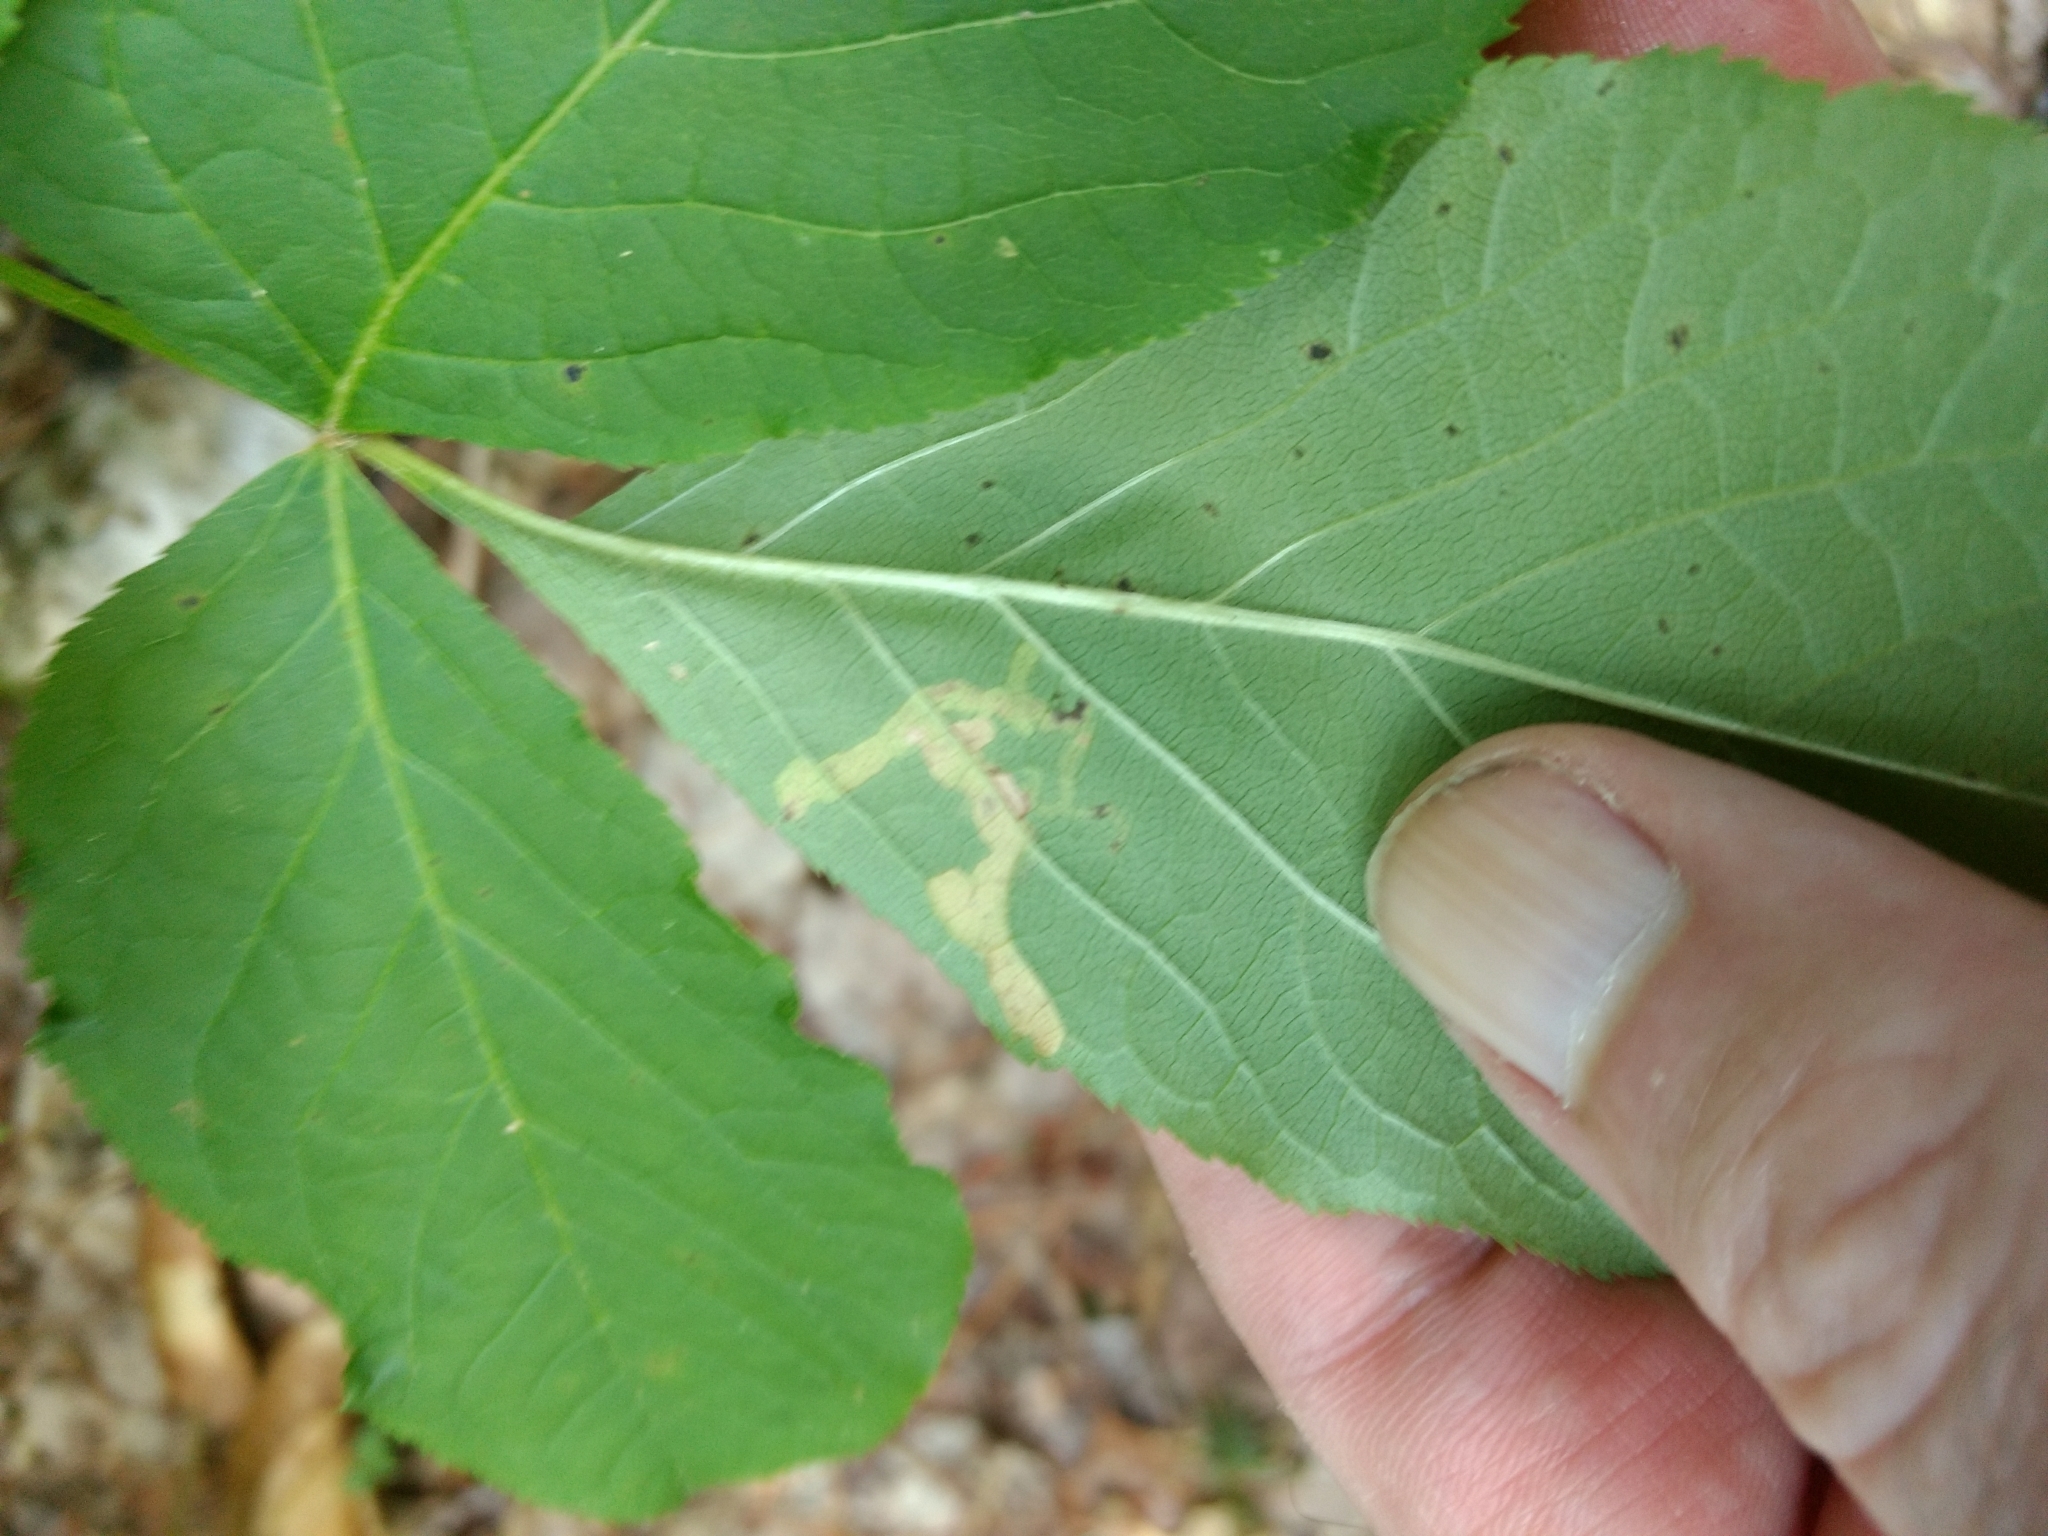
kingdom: Animalia
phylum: Arthropoda
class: Insecta
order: Diptera
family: Agromyzidae
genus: Phytomyza
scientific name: Phytomyza aralivora
